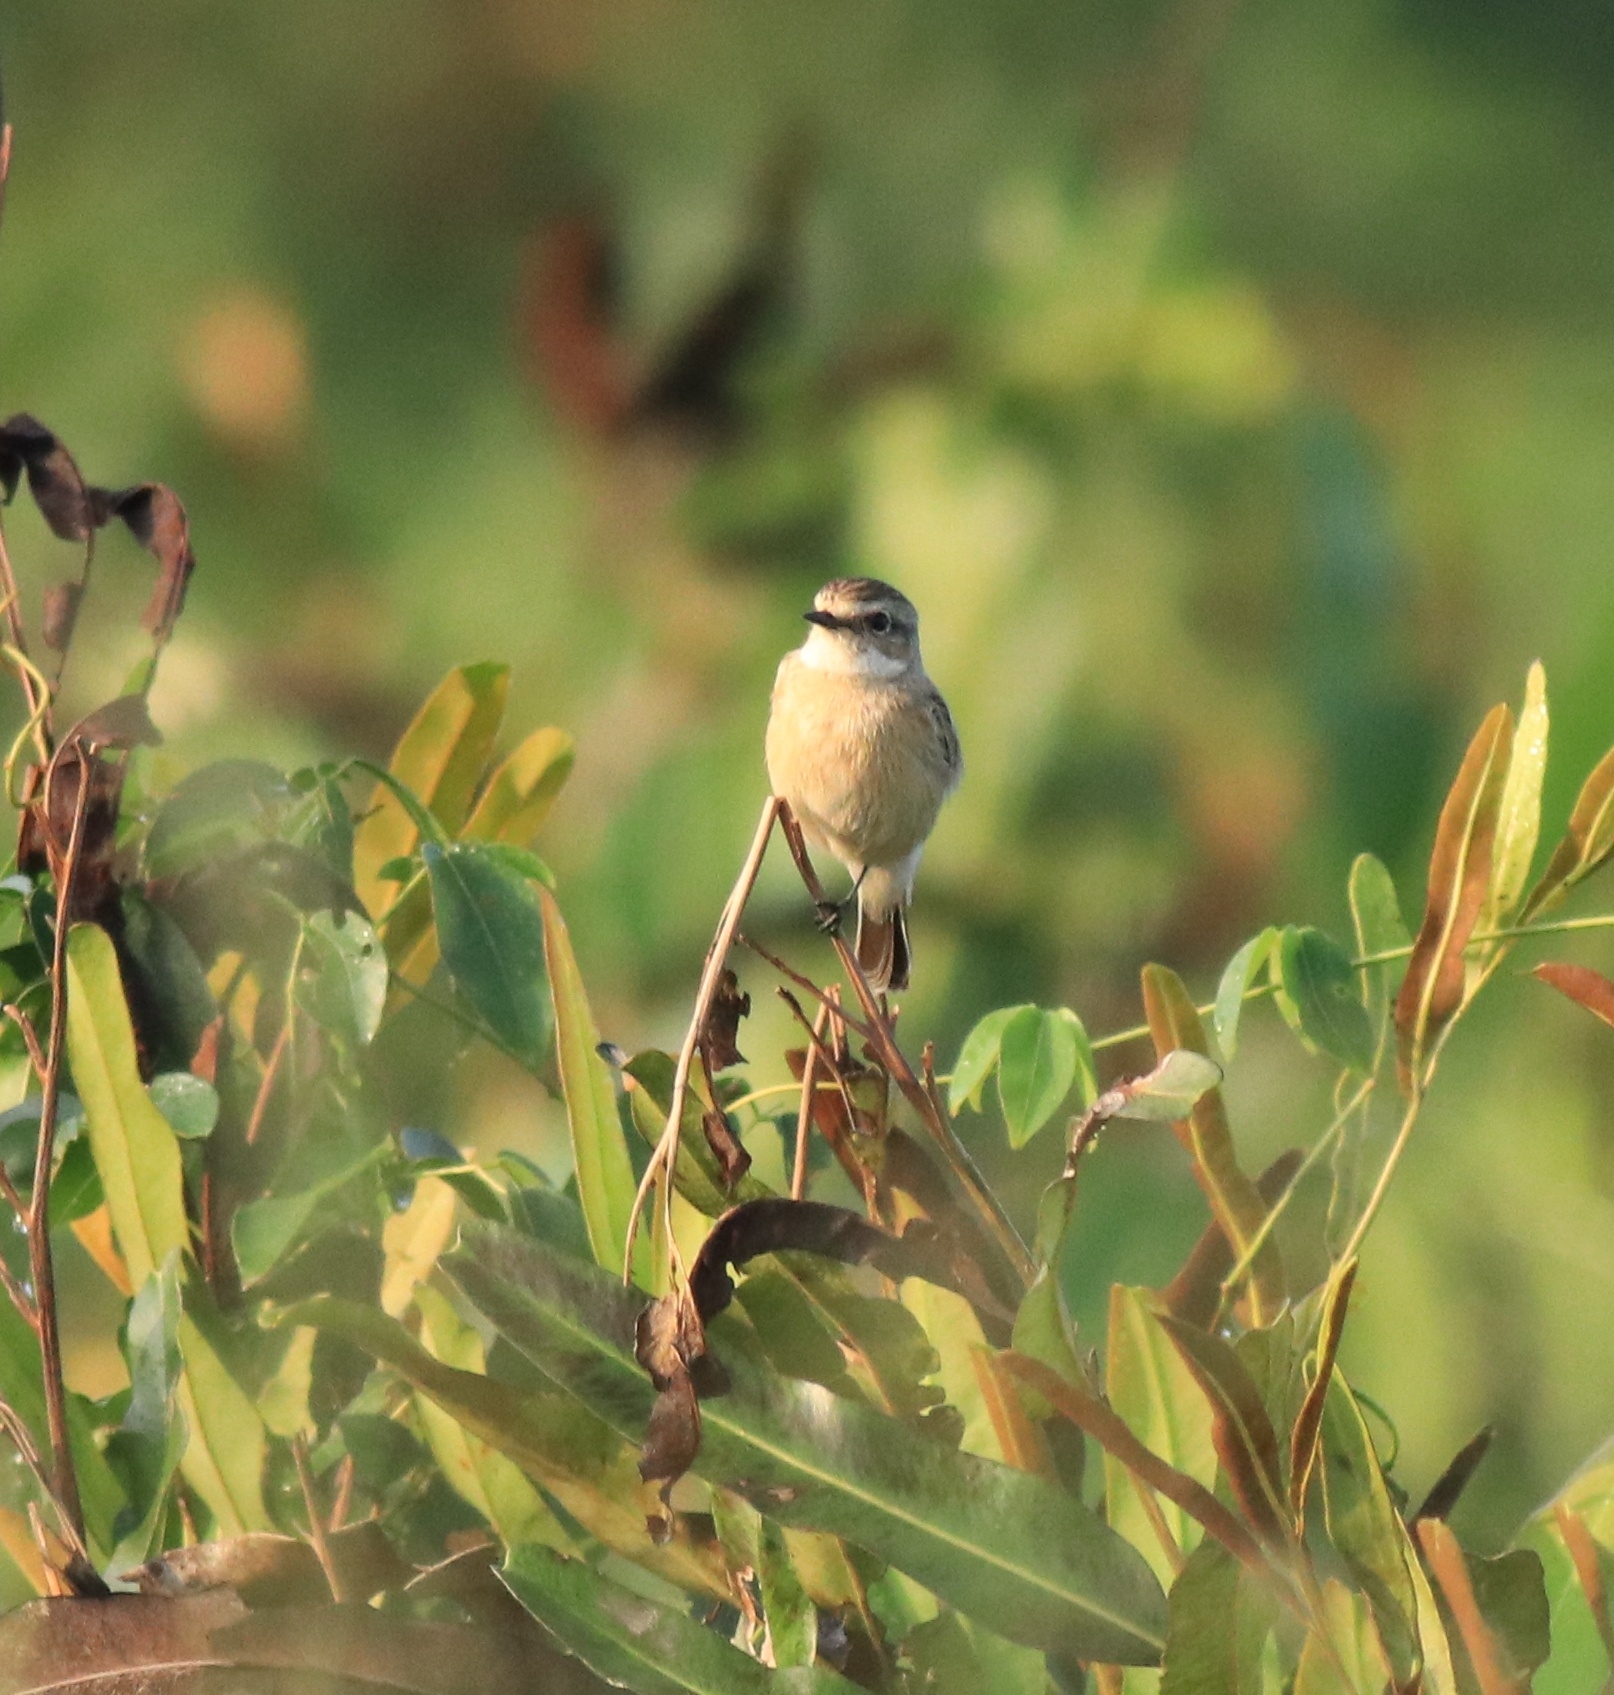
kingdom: Animalia
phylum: Chordata
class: Aves
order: Passeriformes
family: Muscicapidae
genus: Saxicola
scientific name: Saxicola maurus
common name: Siberian stonechat
